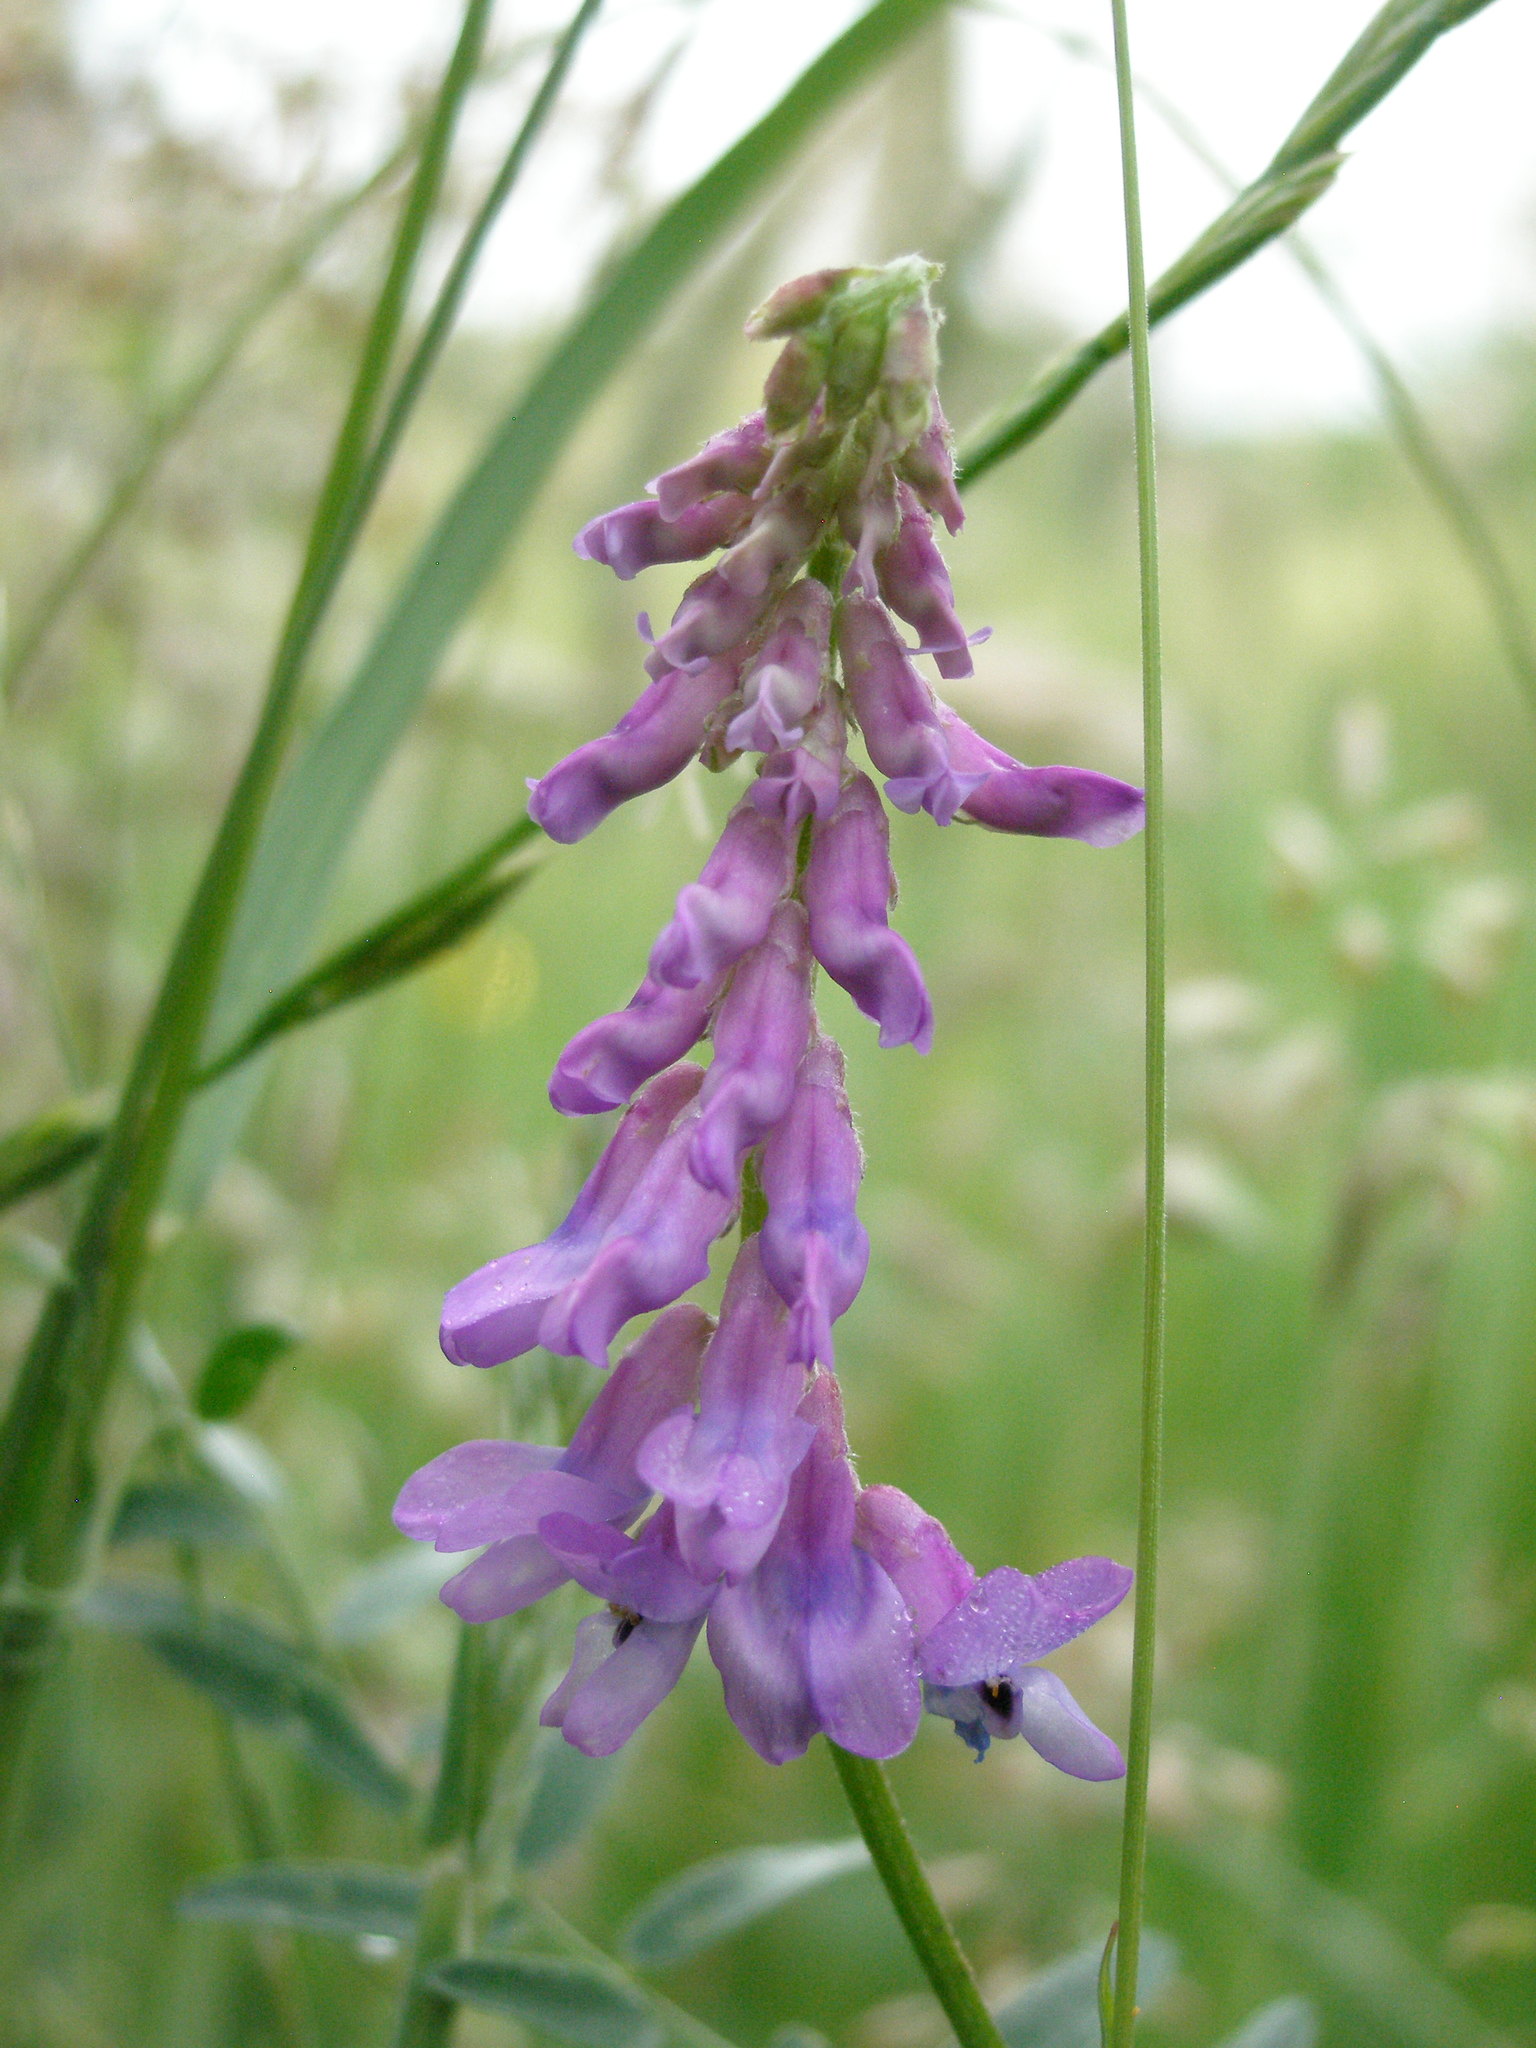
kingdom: Plantae
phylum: Tracheophyta
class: Magnoliopsida
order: Fabales
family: Fabaceae
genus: Vicia
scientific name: Vicia cracca
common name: Bird vetch
